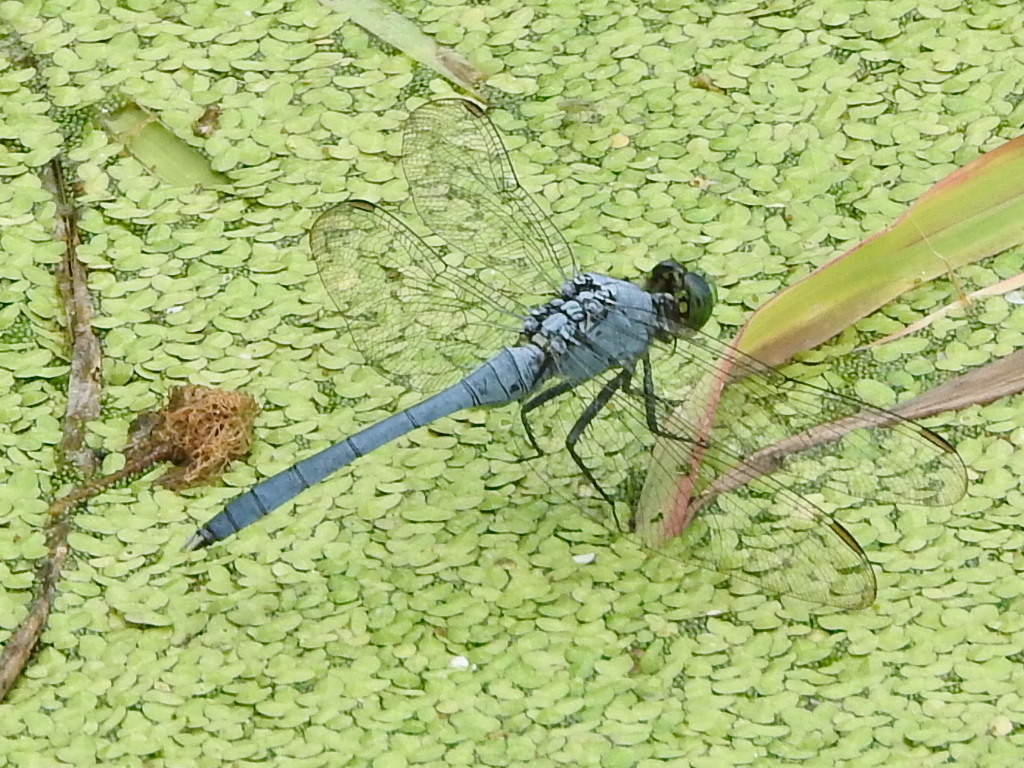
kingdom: Animalia
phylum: Arthropoda
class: Insecta
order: Odonata
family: Libellulidae
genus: Erythemis
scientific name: Erythemis simplicicollis
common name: Eastern pondhawk
